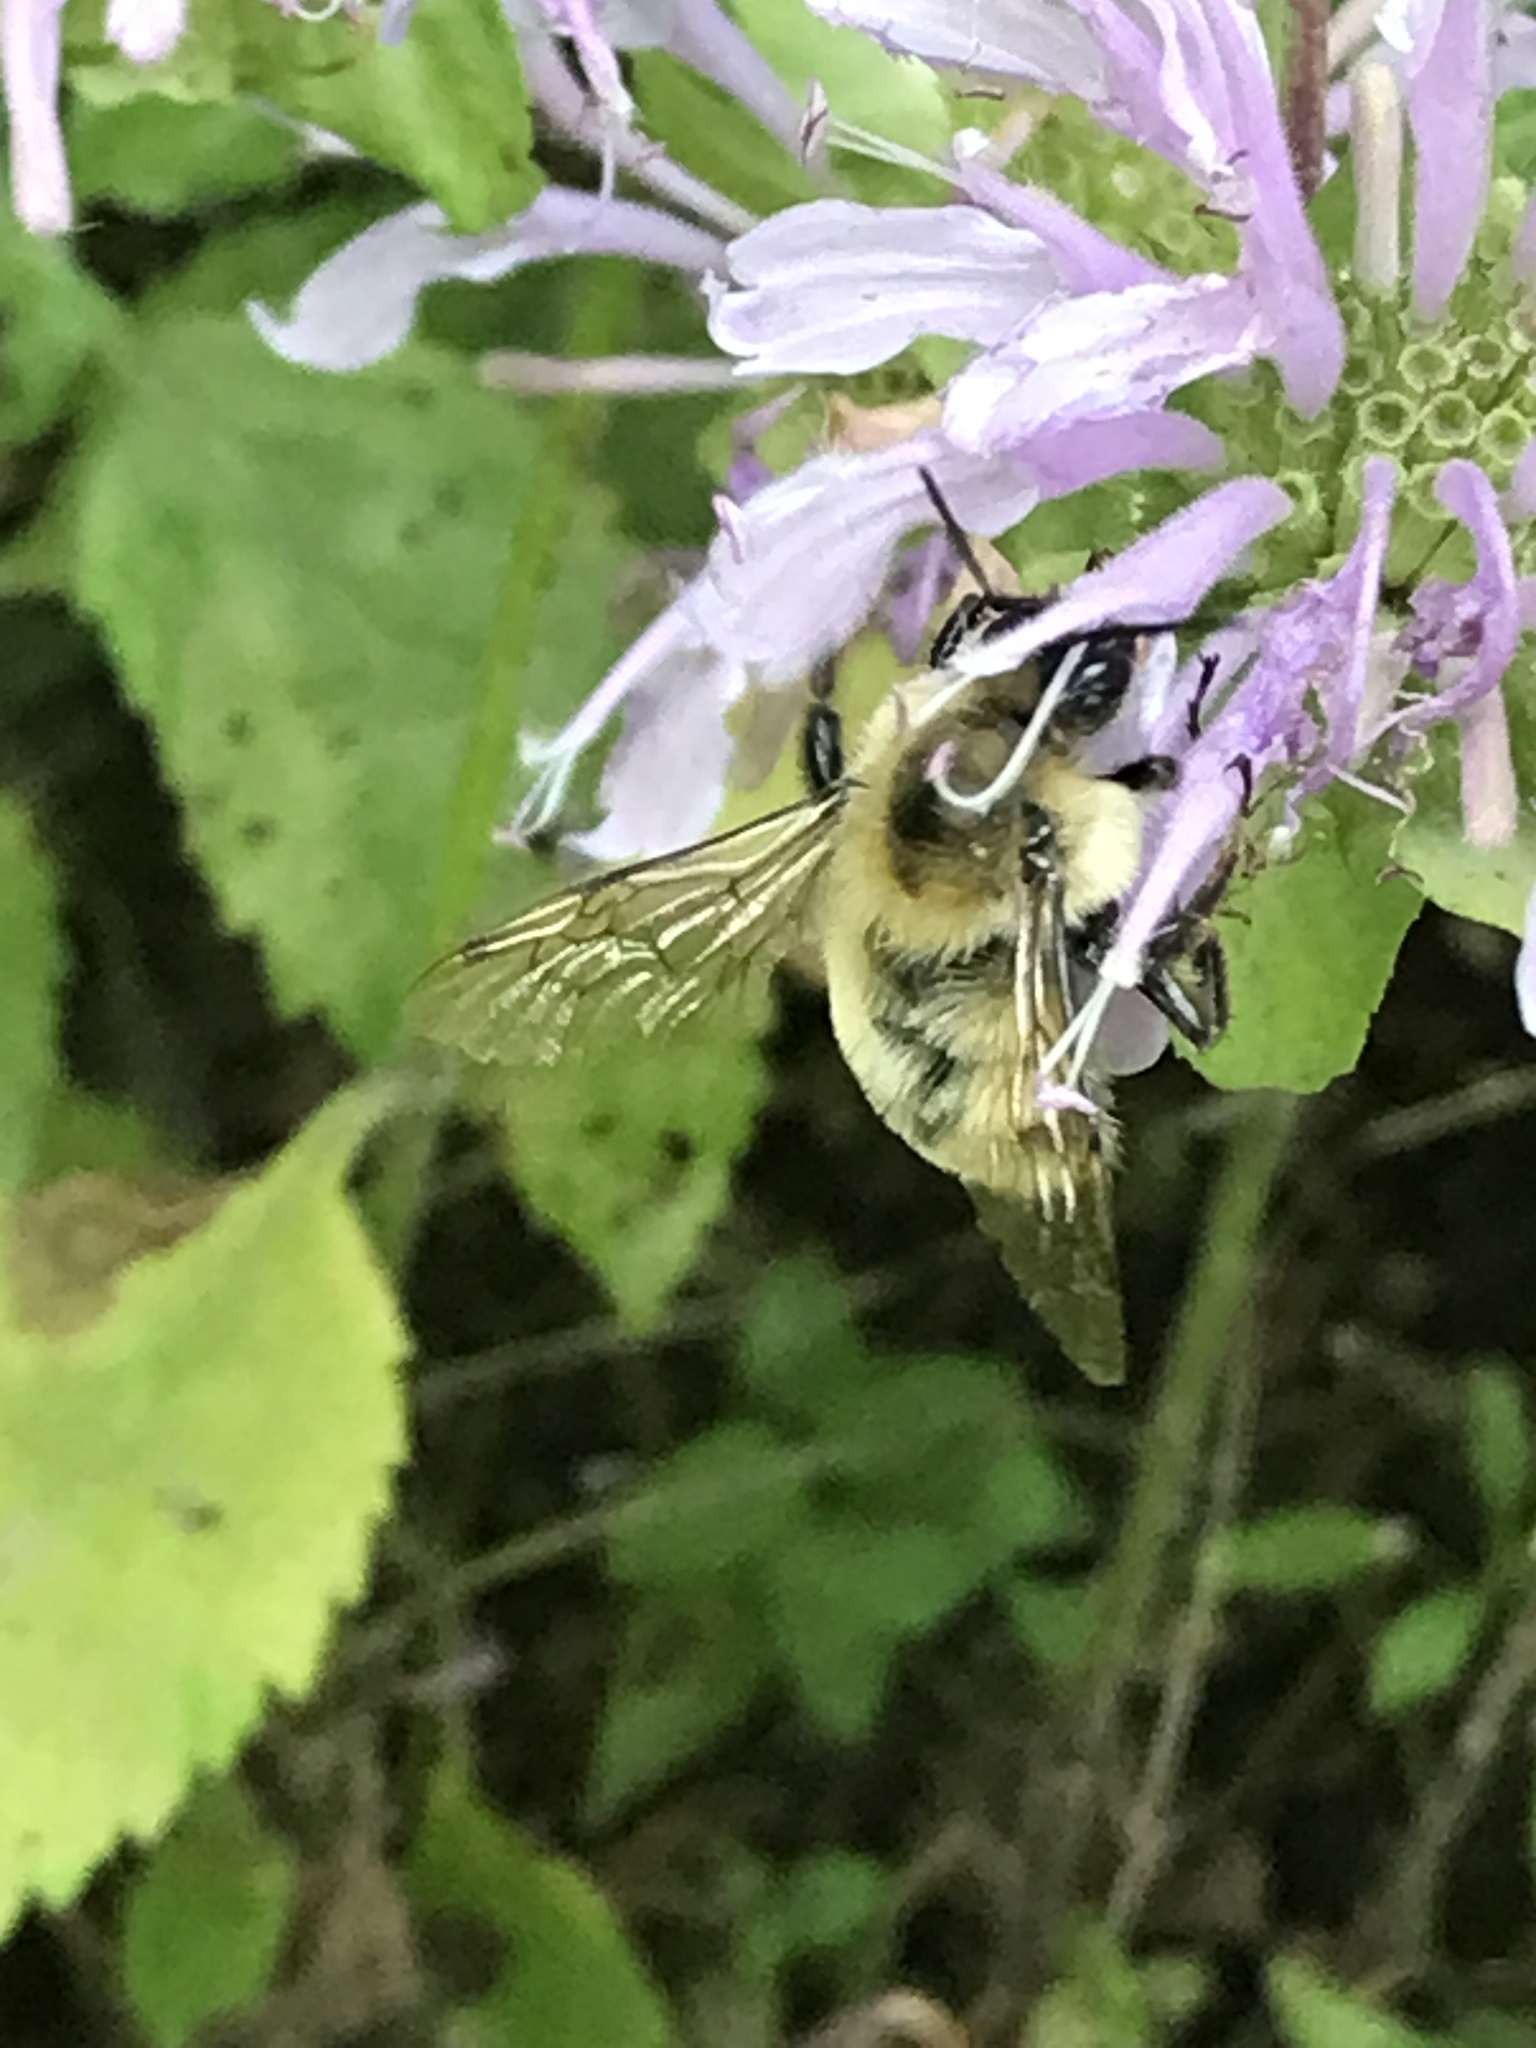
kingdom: Animalia
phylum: Arthropoda
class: Insecta
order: Hymenoptera
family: Apidae
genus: Bombus
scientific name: Bombus perplexus
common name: Confusing bumble bee
